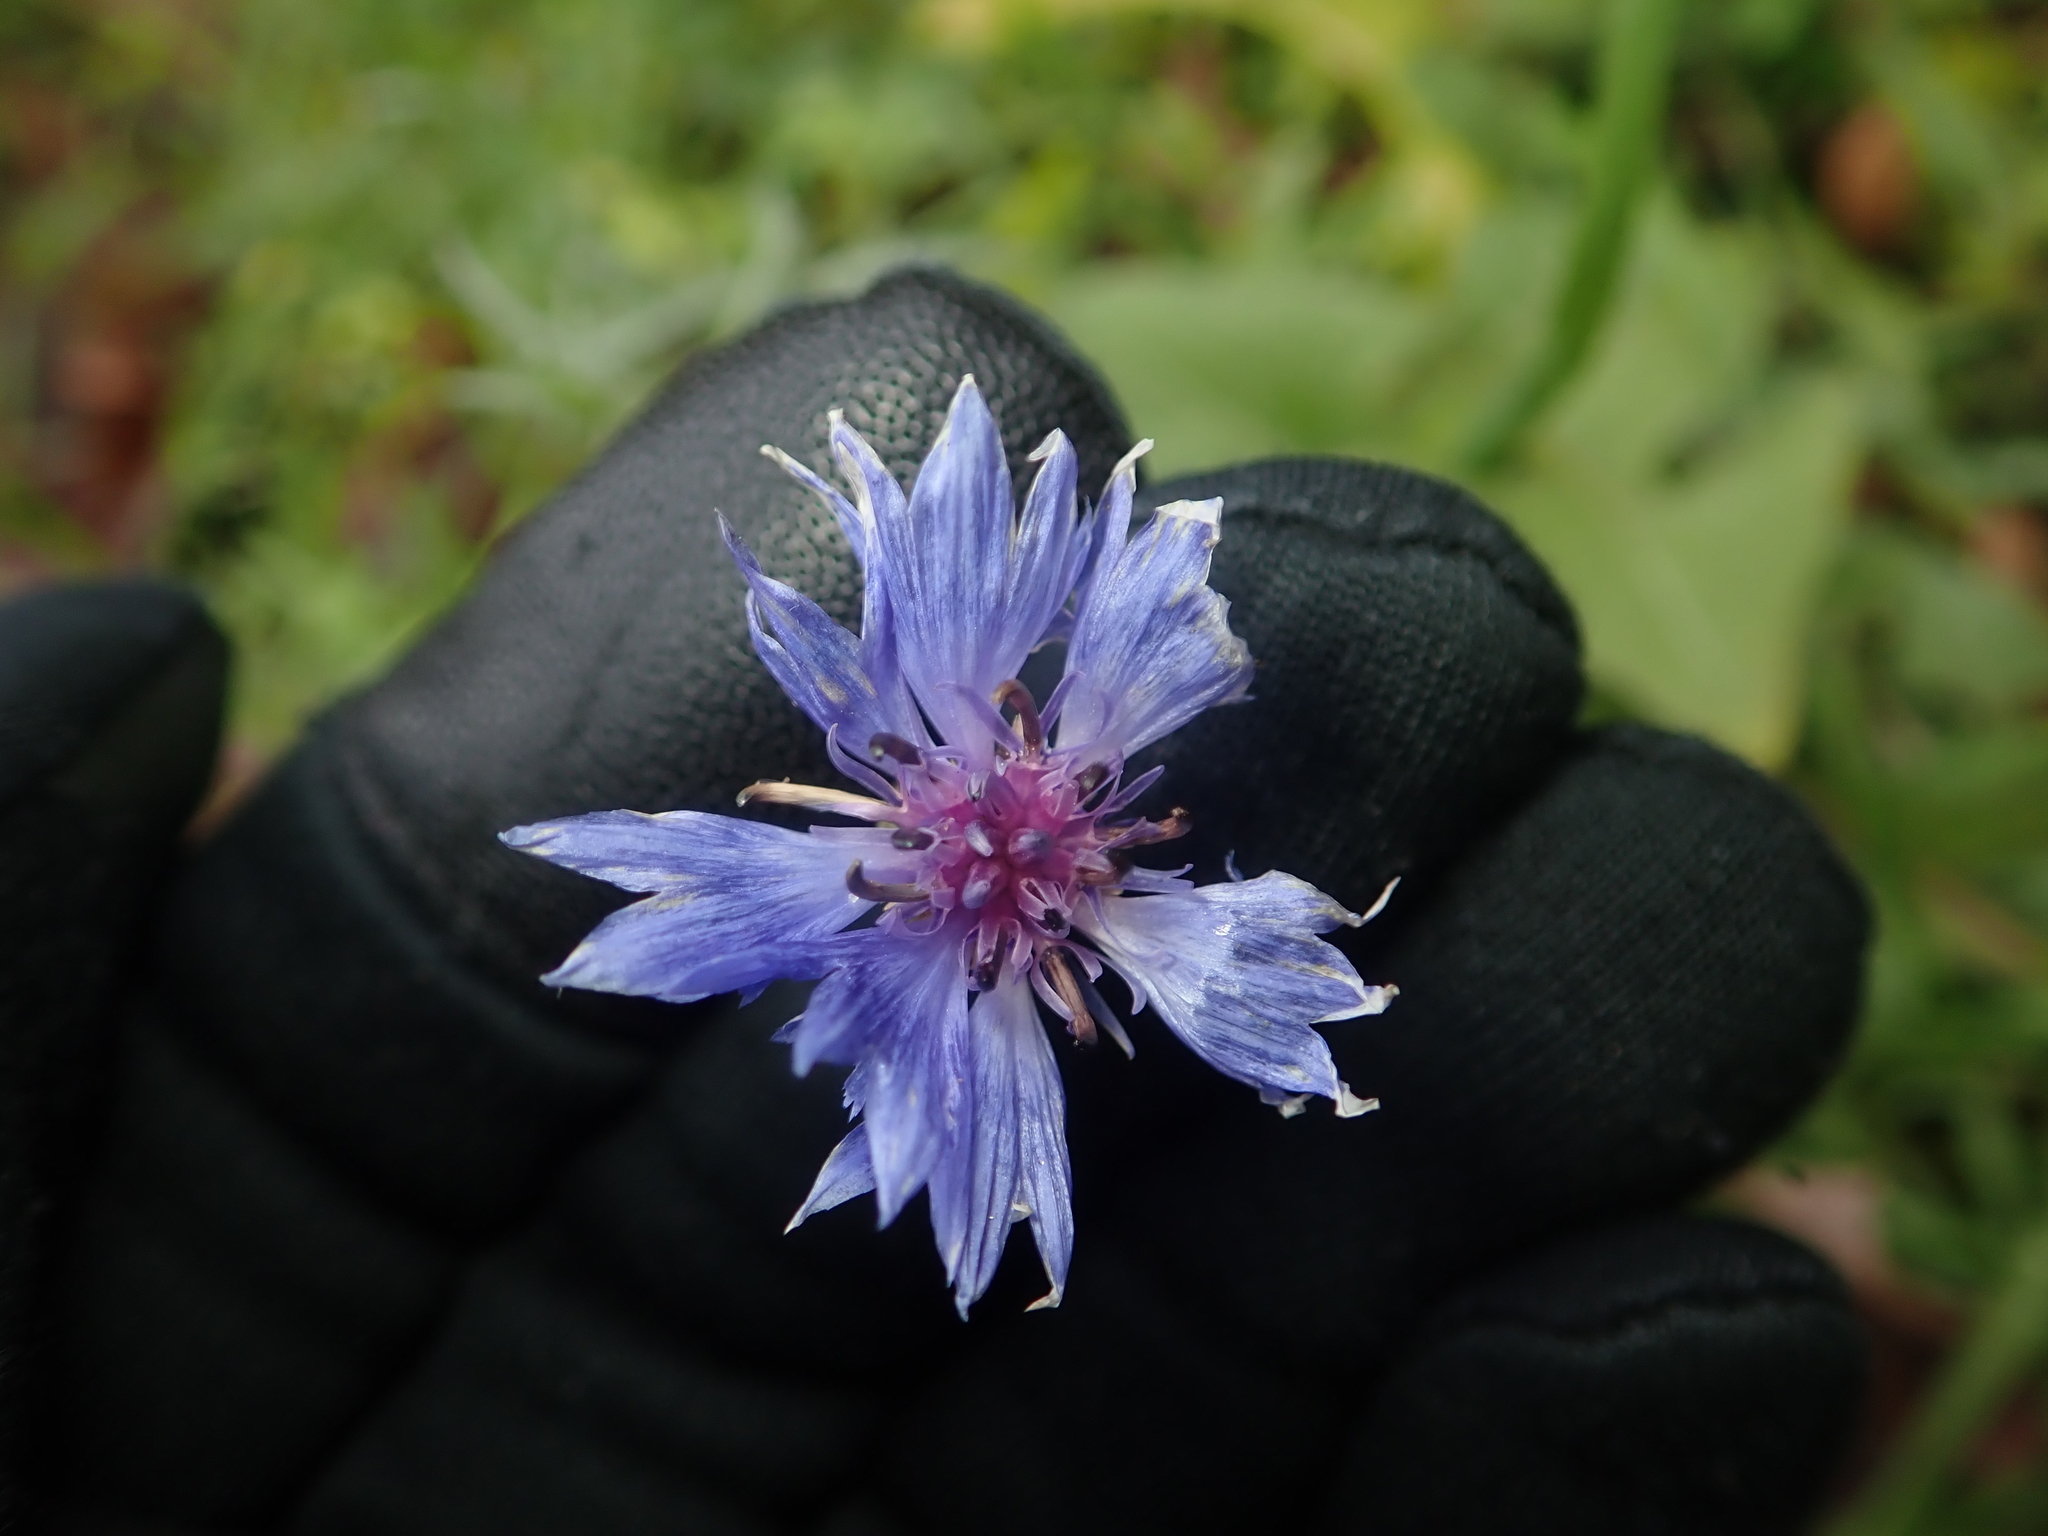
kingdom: Plantae
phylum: Tracheophyta
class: Magnoliopsida
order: Asterales
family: Asteraceae
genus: Centaurea
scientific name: Centaurea cyanus
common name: Cornflower
